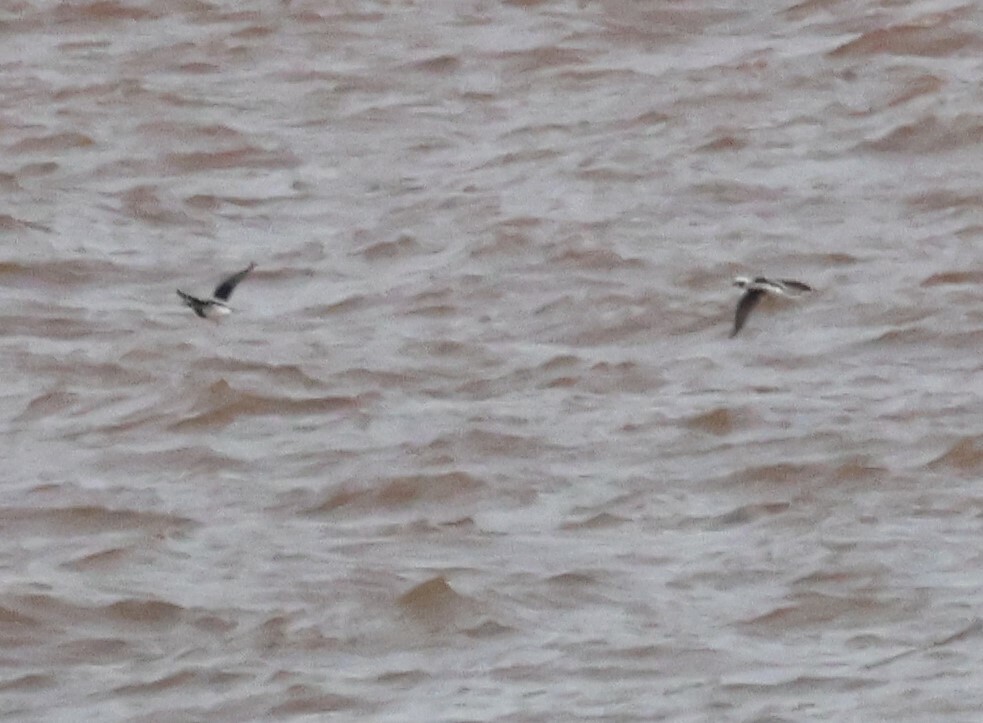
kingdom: Animalia
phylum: Chordata
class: Aves
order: Anseriformes
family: Anatidae
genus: Clangula
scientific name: Clangula hyemalis
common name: Long-tailed duck
